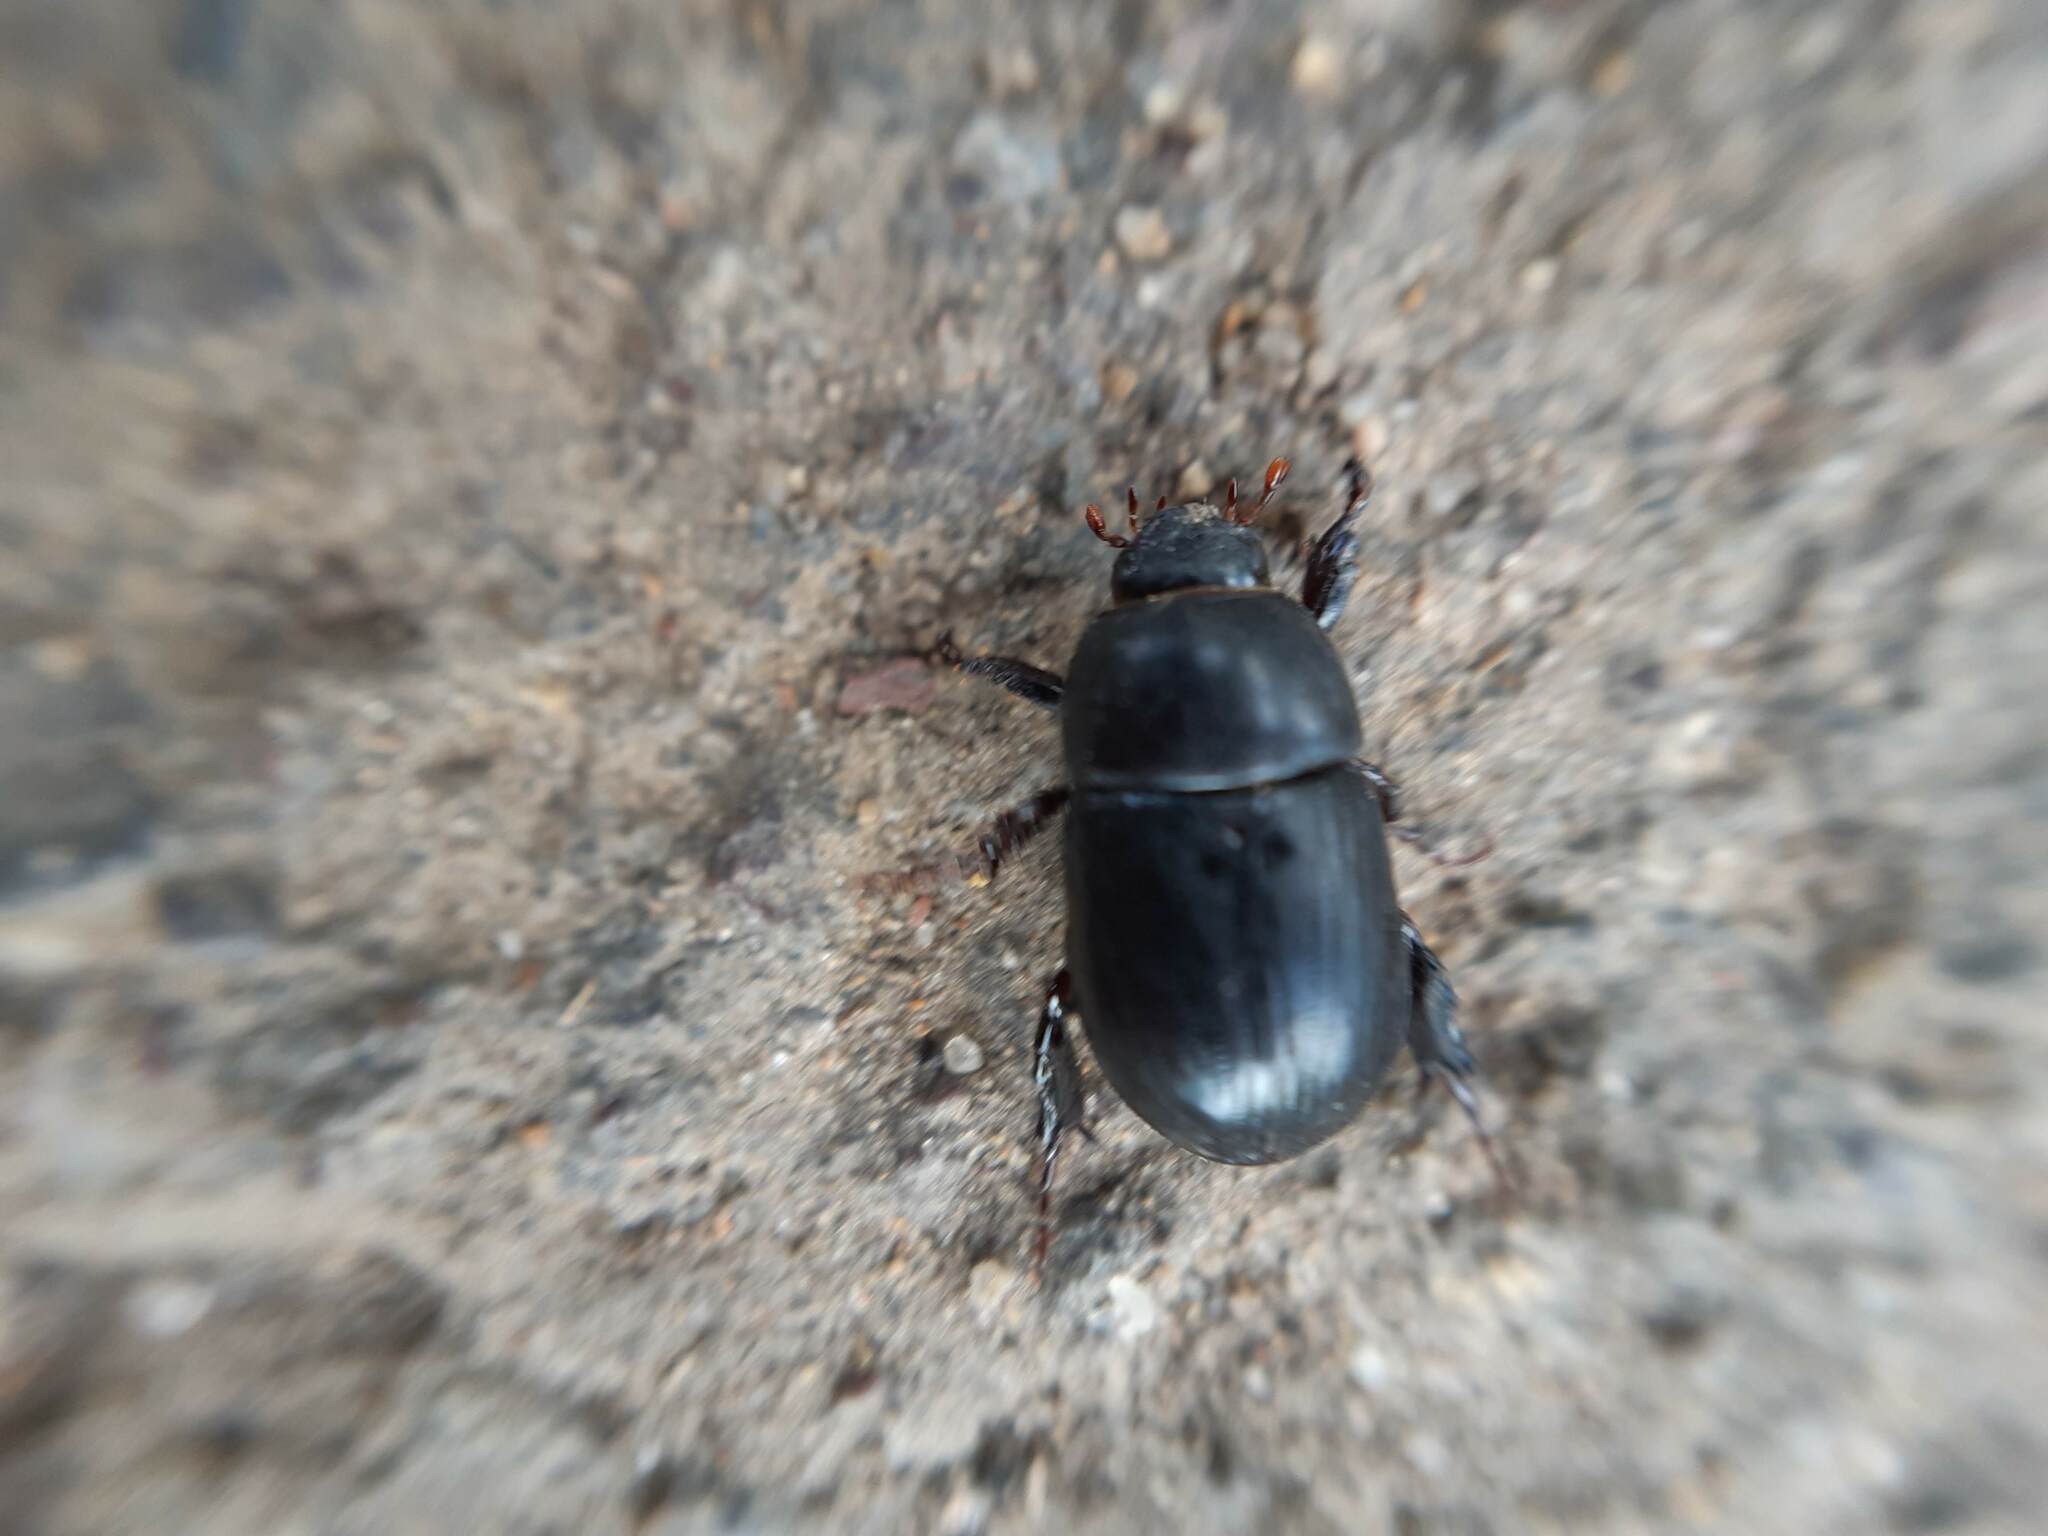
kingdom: Animalia
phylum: Arthropoda
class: Insecta
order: Coleoptera
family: Scarabaeidae
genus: Heteronychus
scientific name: Heteronychus arator
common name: African black beetle
